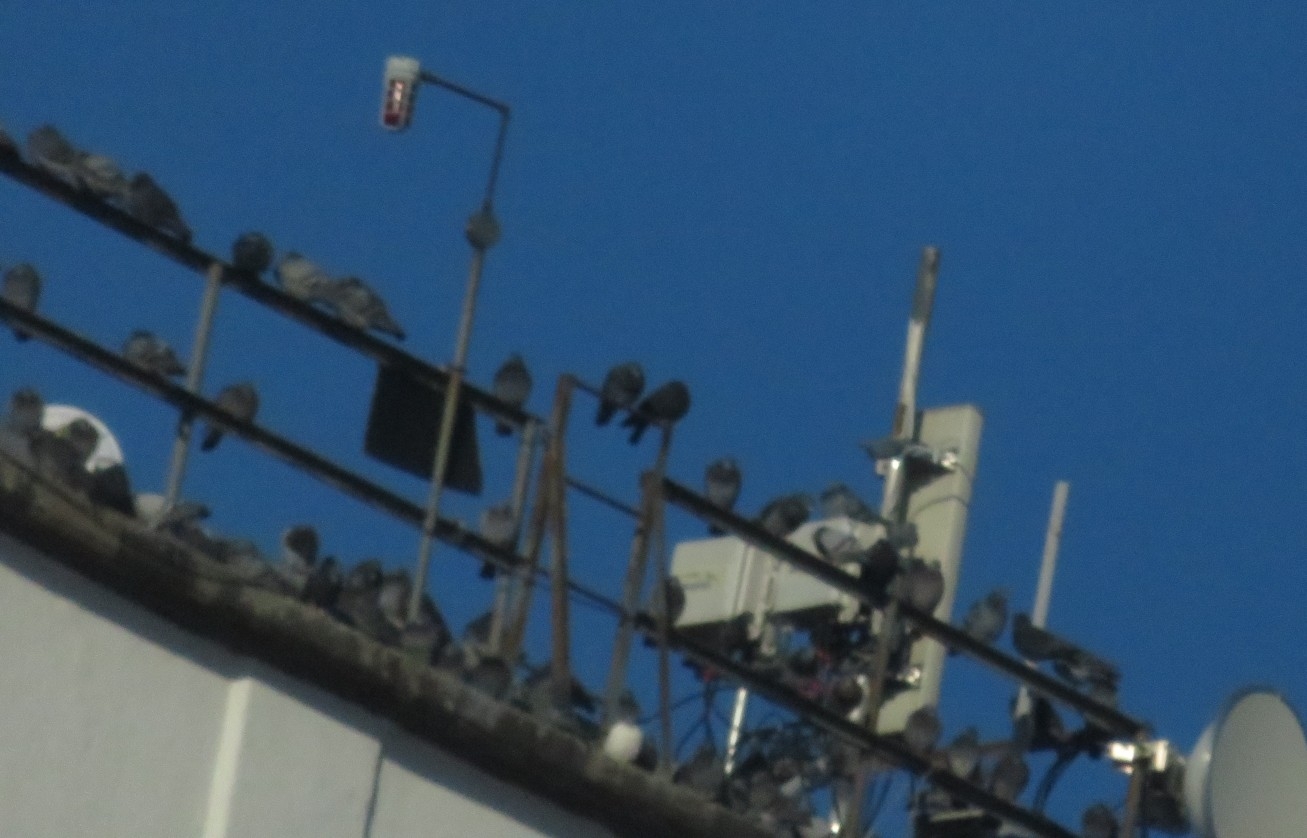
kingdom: Animalia
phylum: Chordata
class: Aves
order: Columbiformes
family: Columbidae
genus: Columba
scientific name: Columba livia
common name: Rock pigeon
